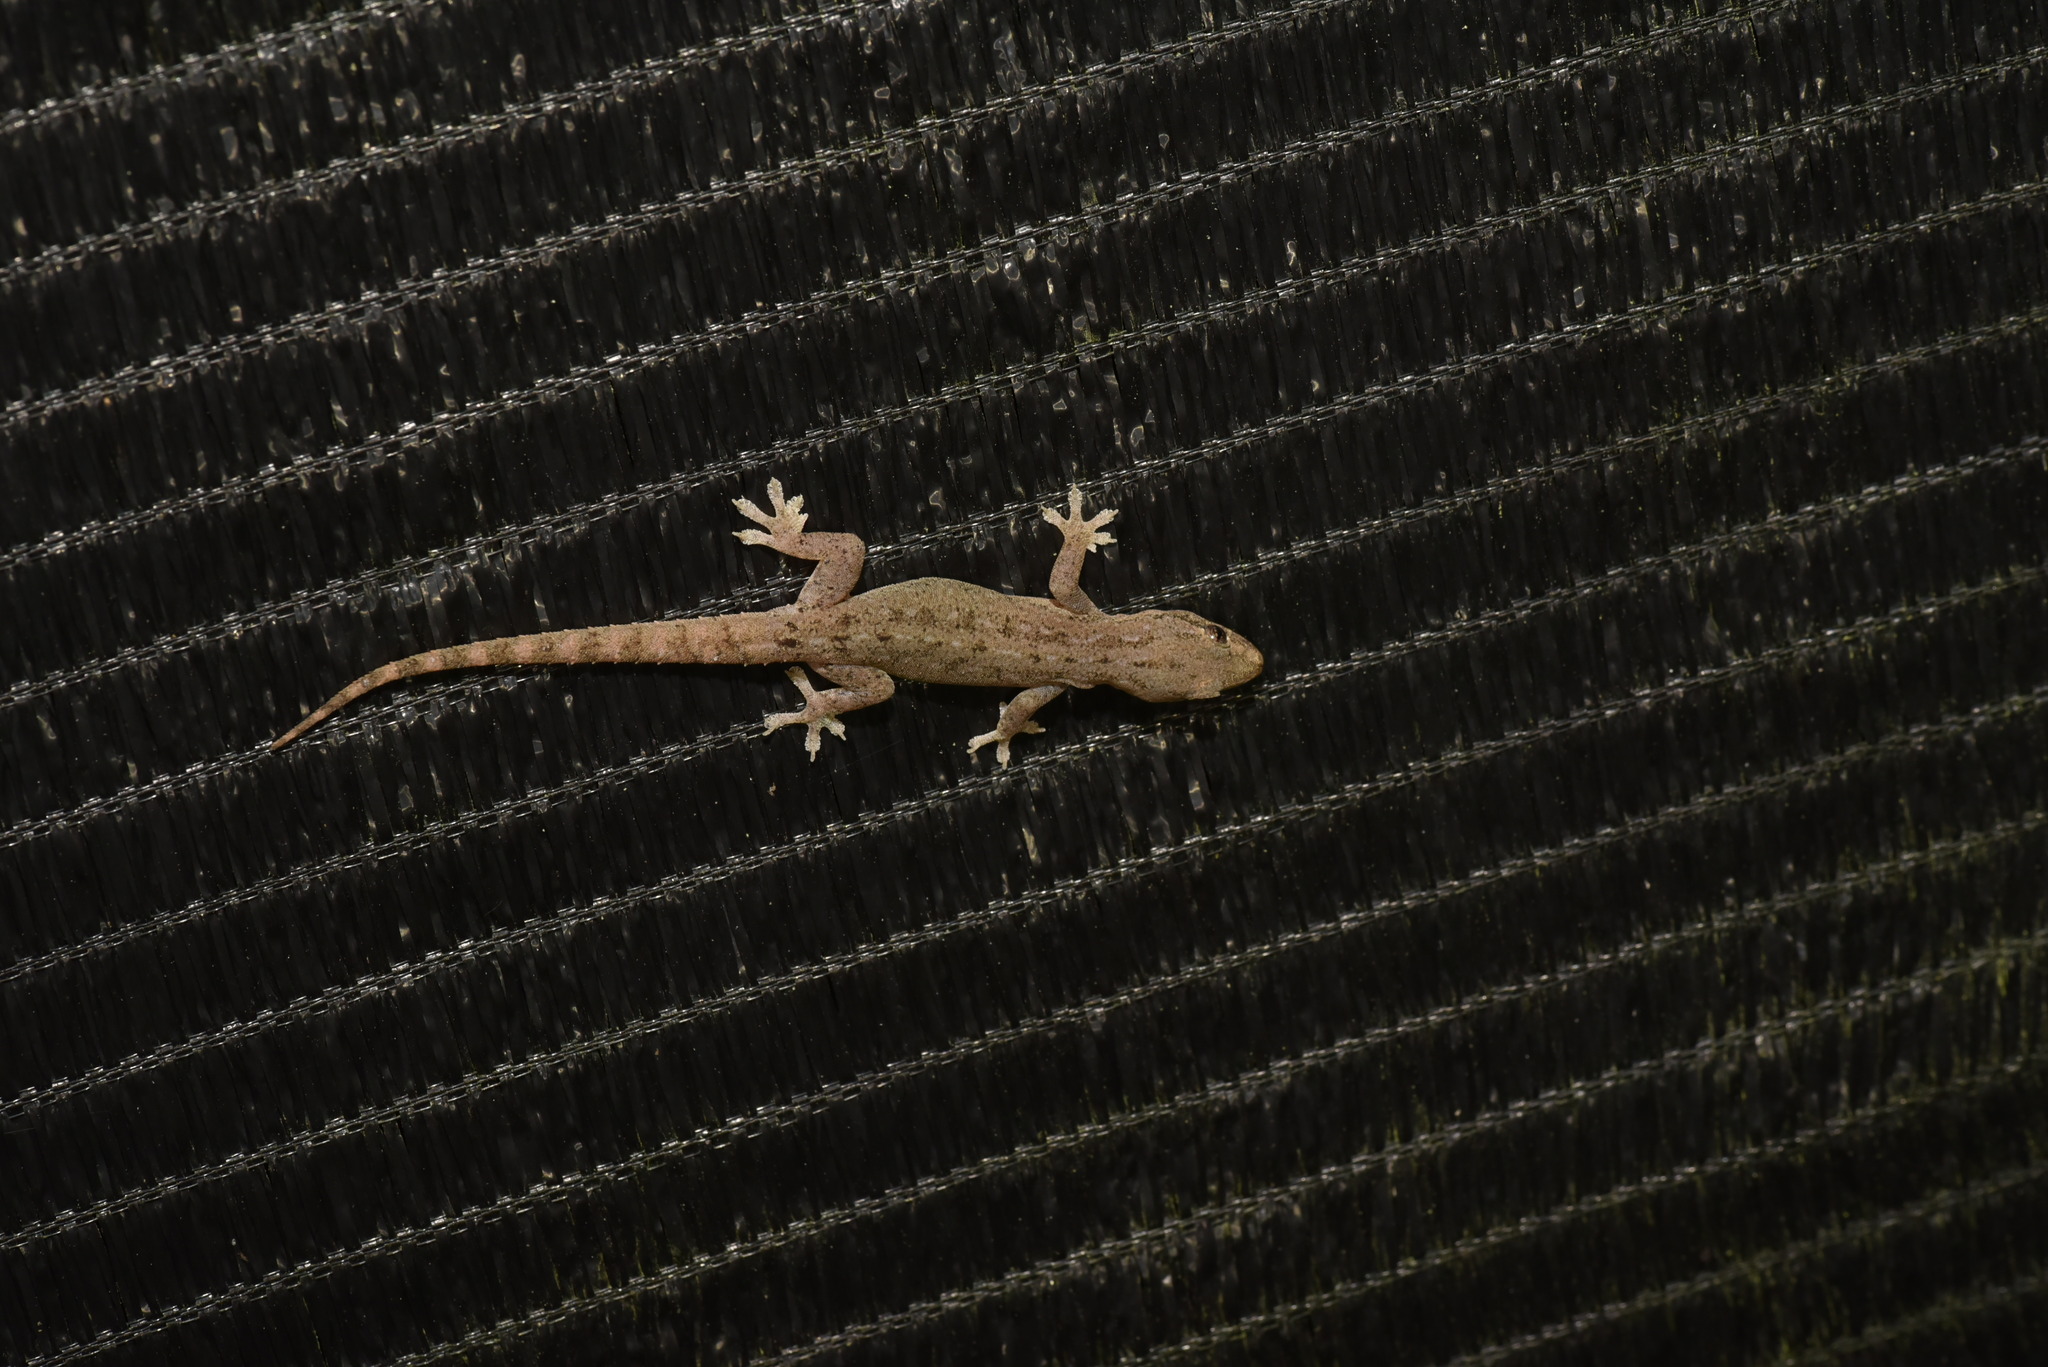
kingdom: Animalia
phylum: Chordata
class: Squamata
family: Gekkonidae
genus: Hemidactylus
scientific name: Hemidactylus frenatus
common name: Common house gecko
